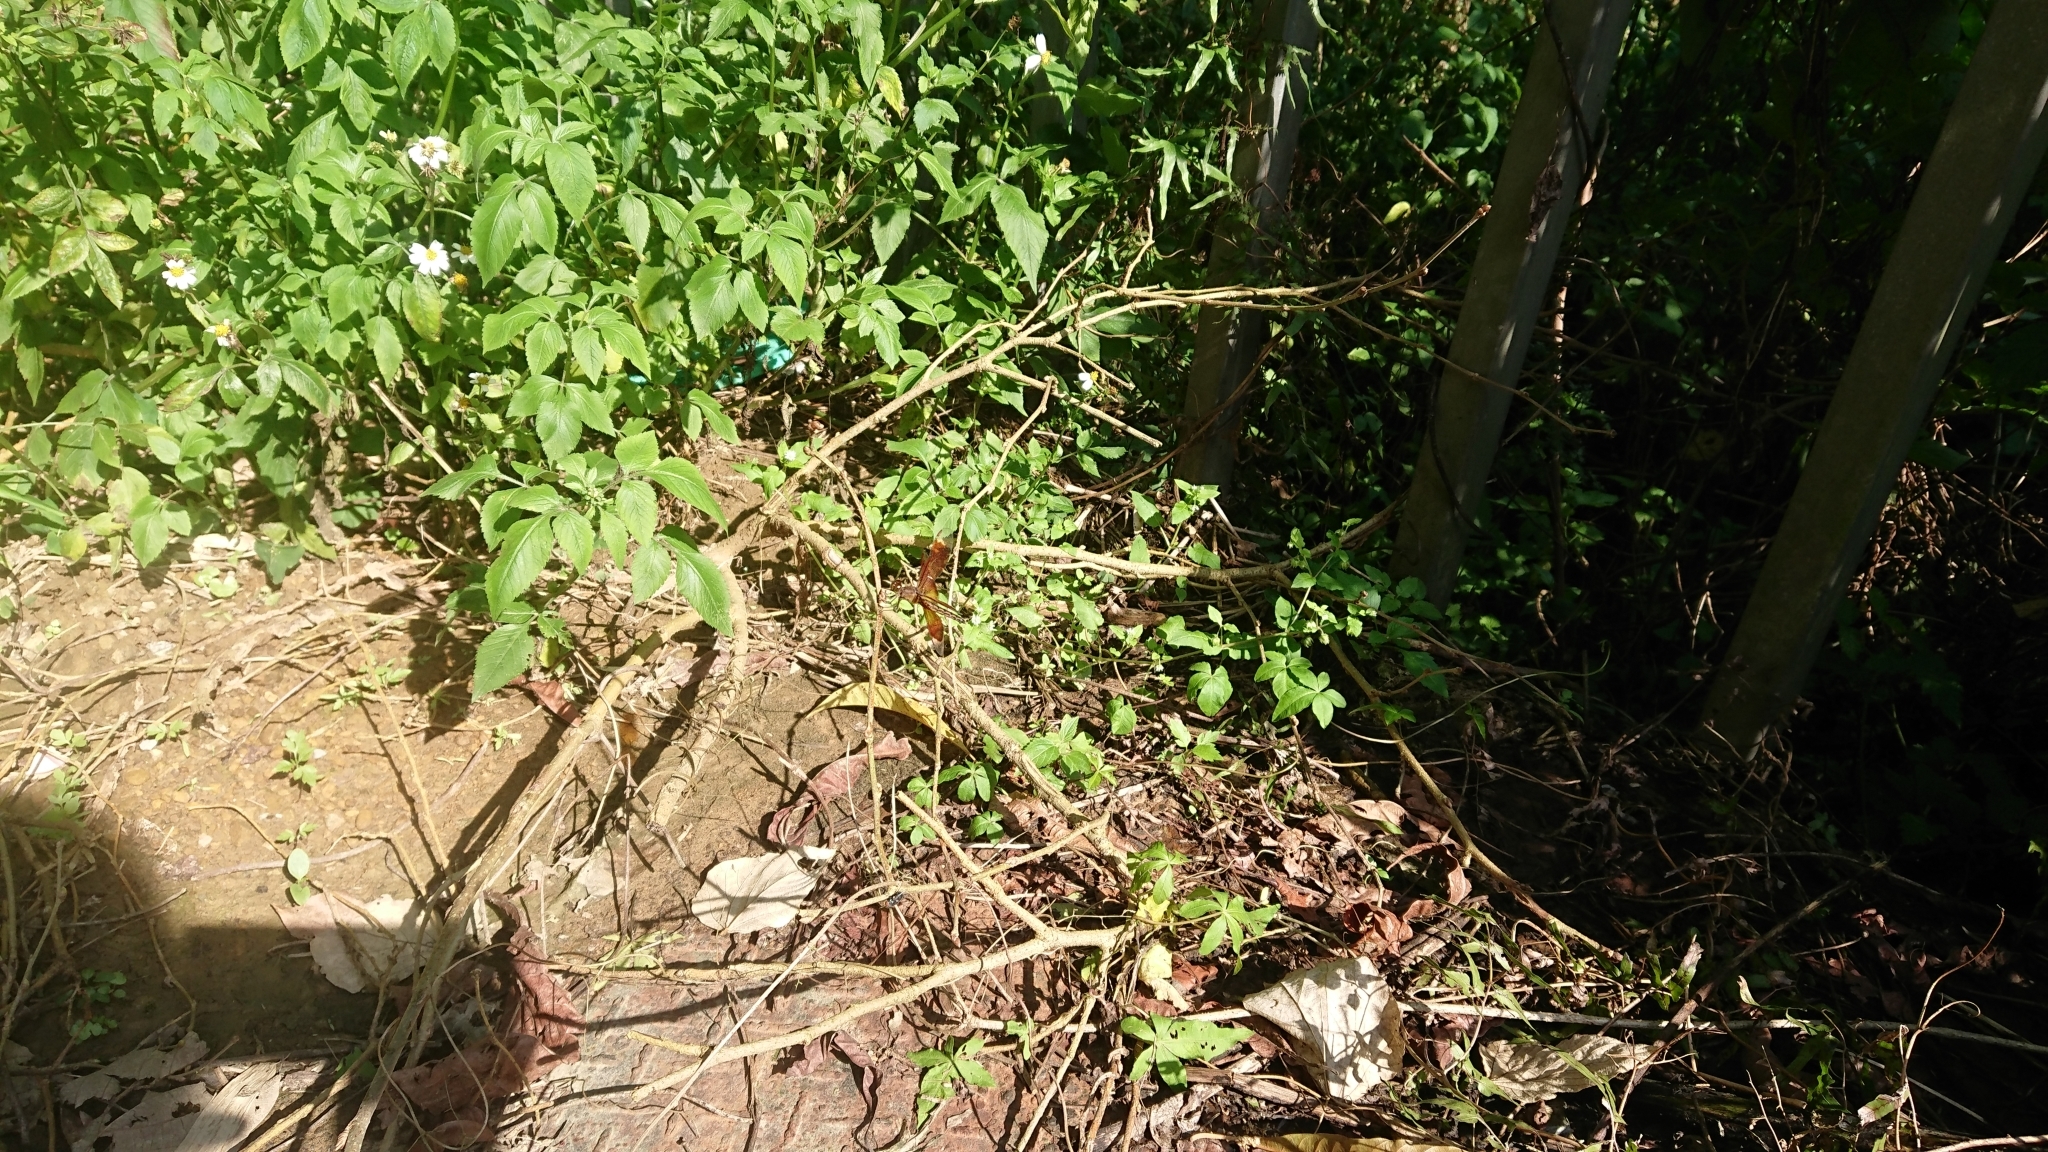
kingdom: Animalia
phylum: Arthropoda
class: Insecta
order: Odonata
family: Libellulidae
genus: Neurothemis
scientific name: Neurothemis taiwanensis
